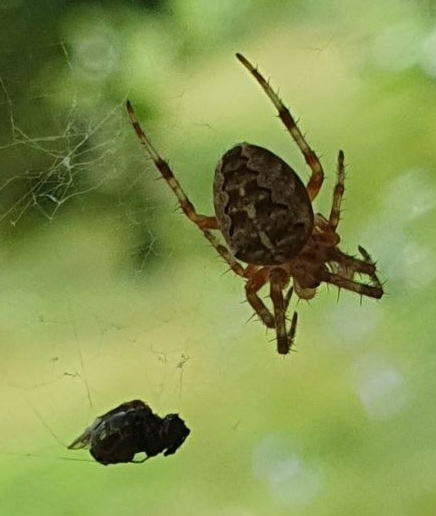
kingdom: Animalia
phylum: Arthropoda
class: Arachnida
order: Araneae
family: Araneidae
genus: Araneus
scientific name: Araneus diadematus
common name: Cross orbweaver
